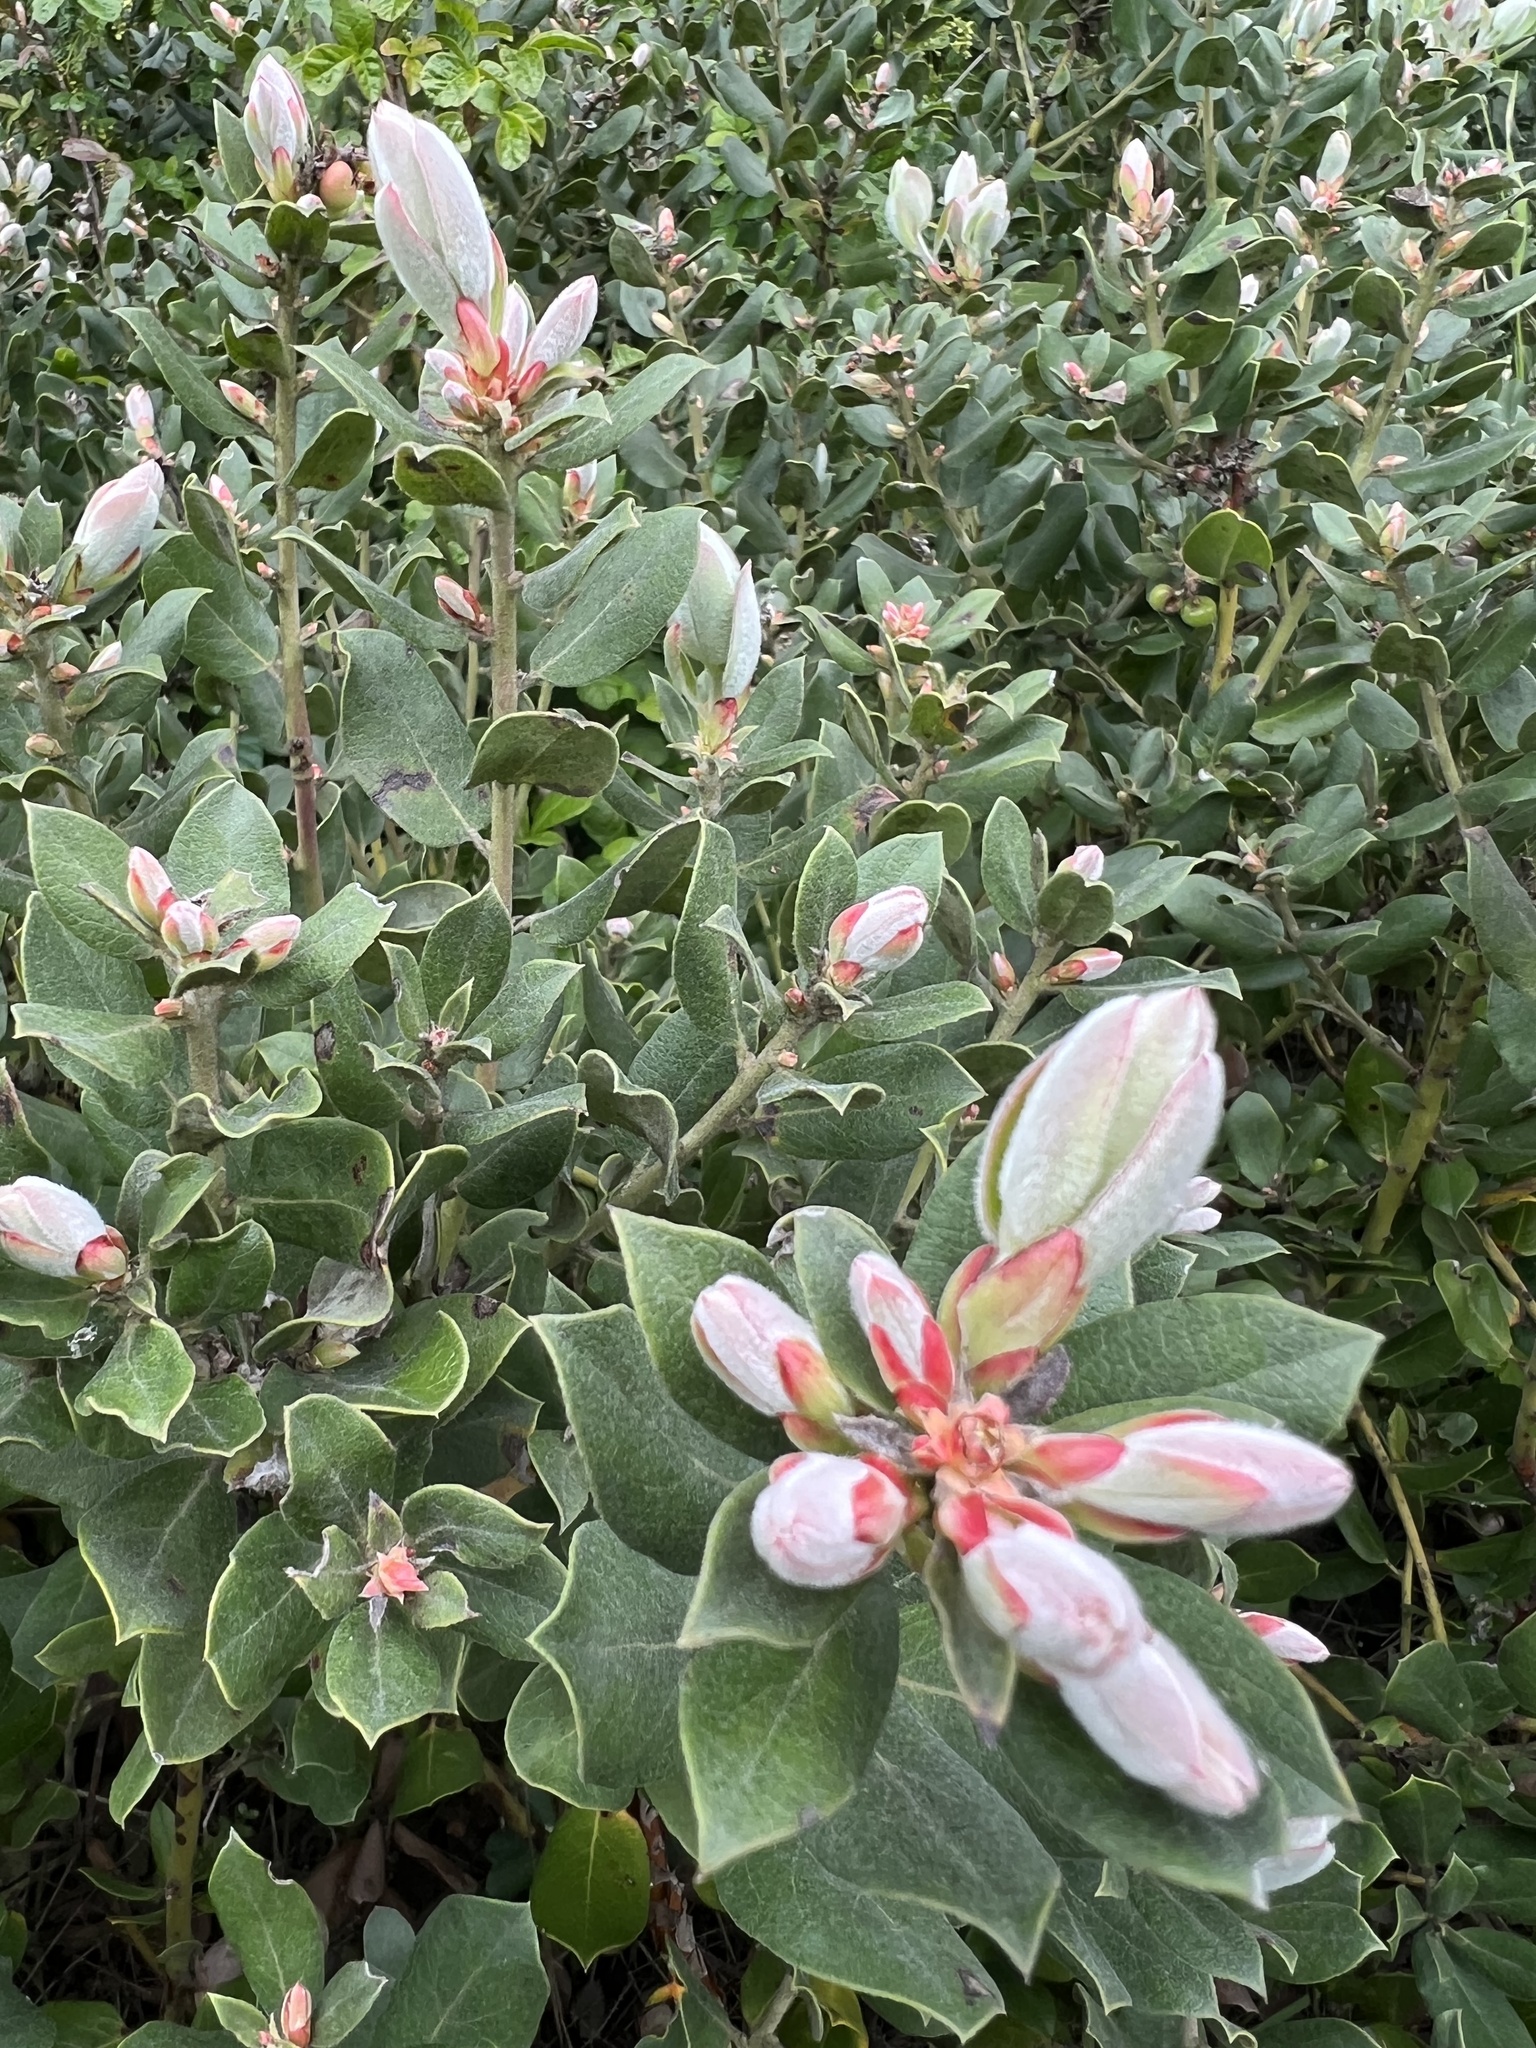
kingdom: Plantae
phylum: Tracheophyta
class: Magnoliopsida
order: Ericales
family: Ericaceae
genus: Arctostaphylos
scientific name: Arctostaphylos tomentosa
